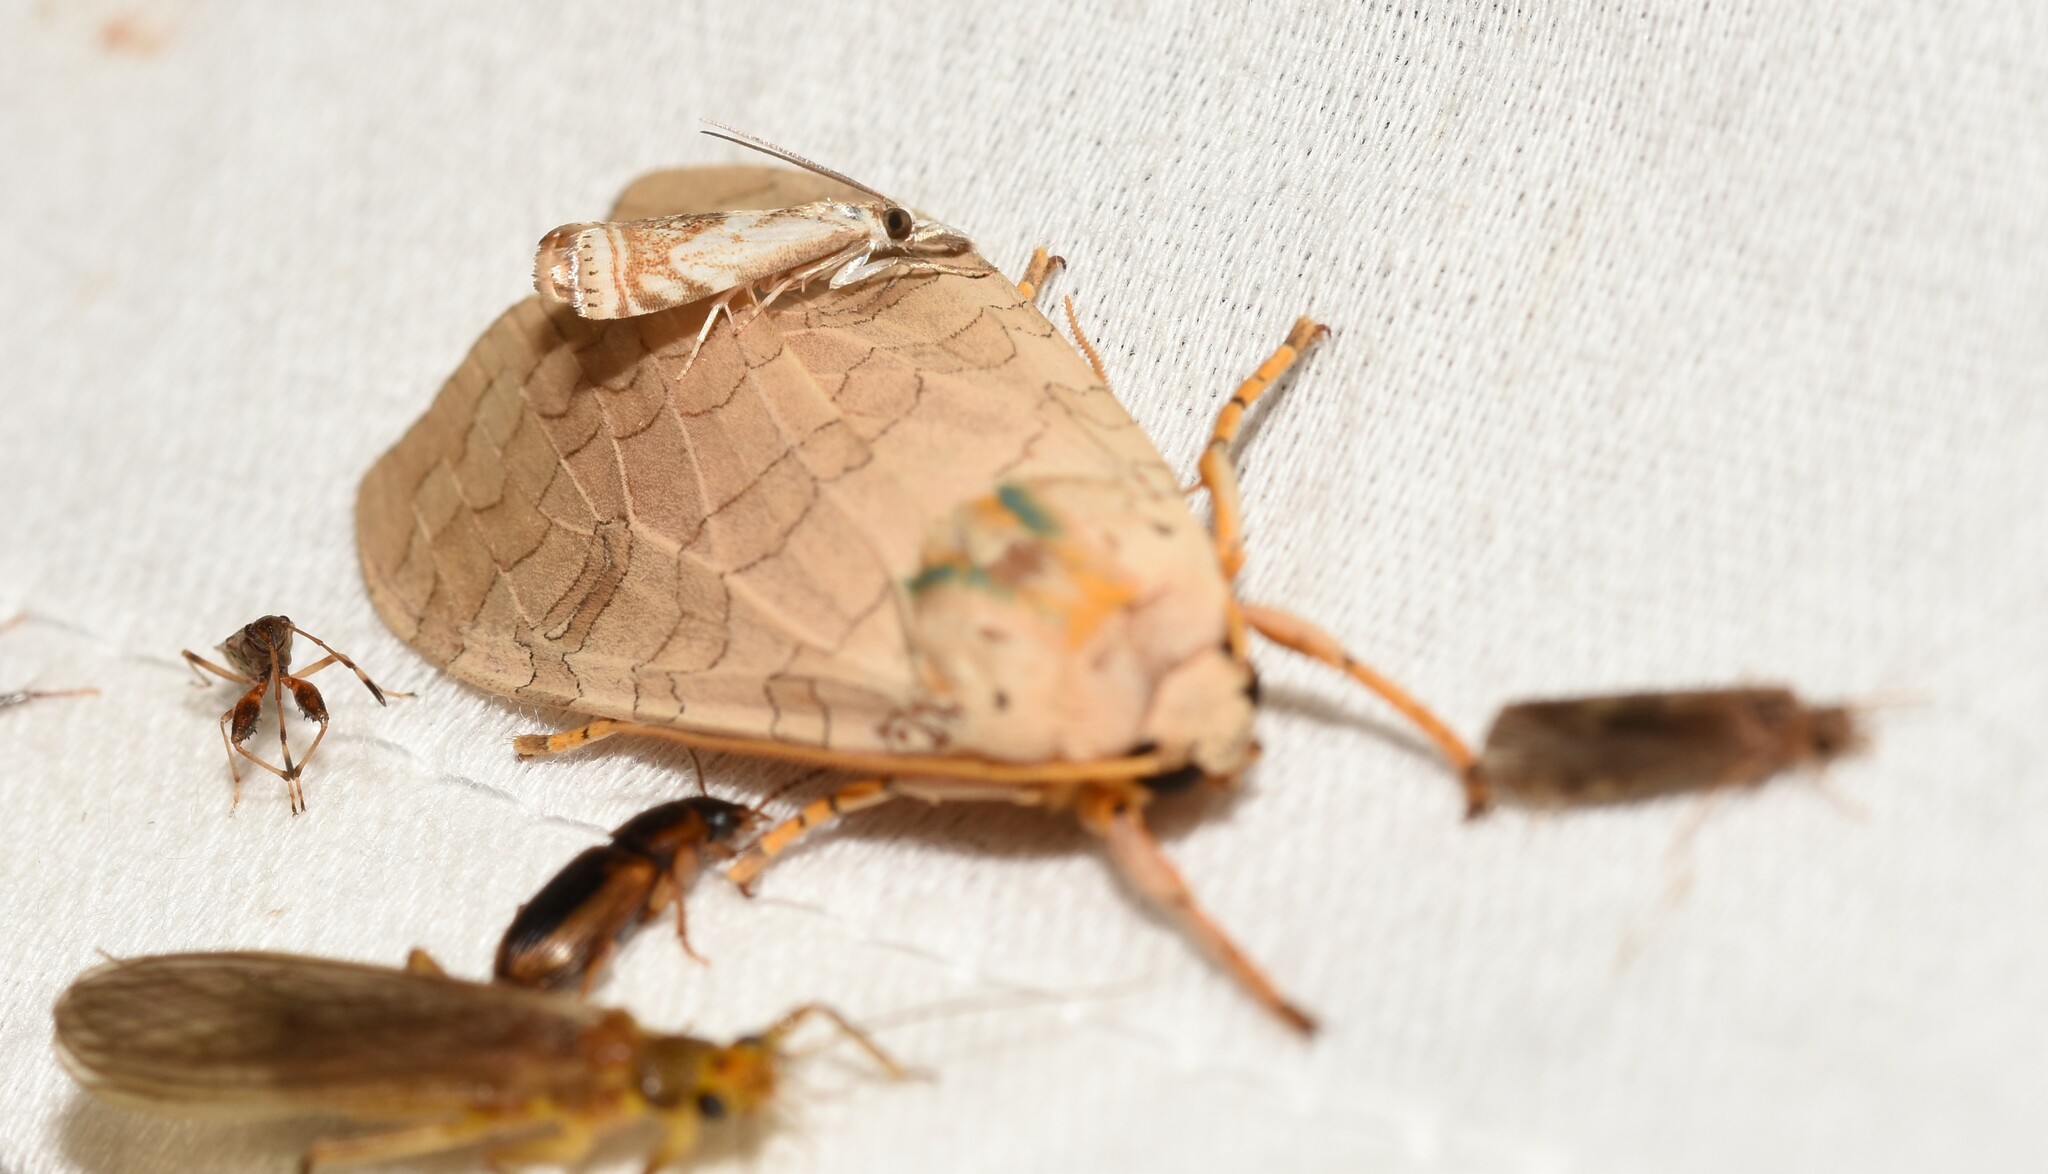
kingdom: Animalia
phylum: Arthropoda
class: Insecta
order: Lepidoptera
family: Erebidae
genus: Halysidota
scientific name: Halysidota
